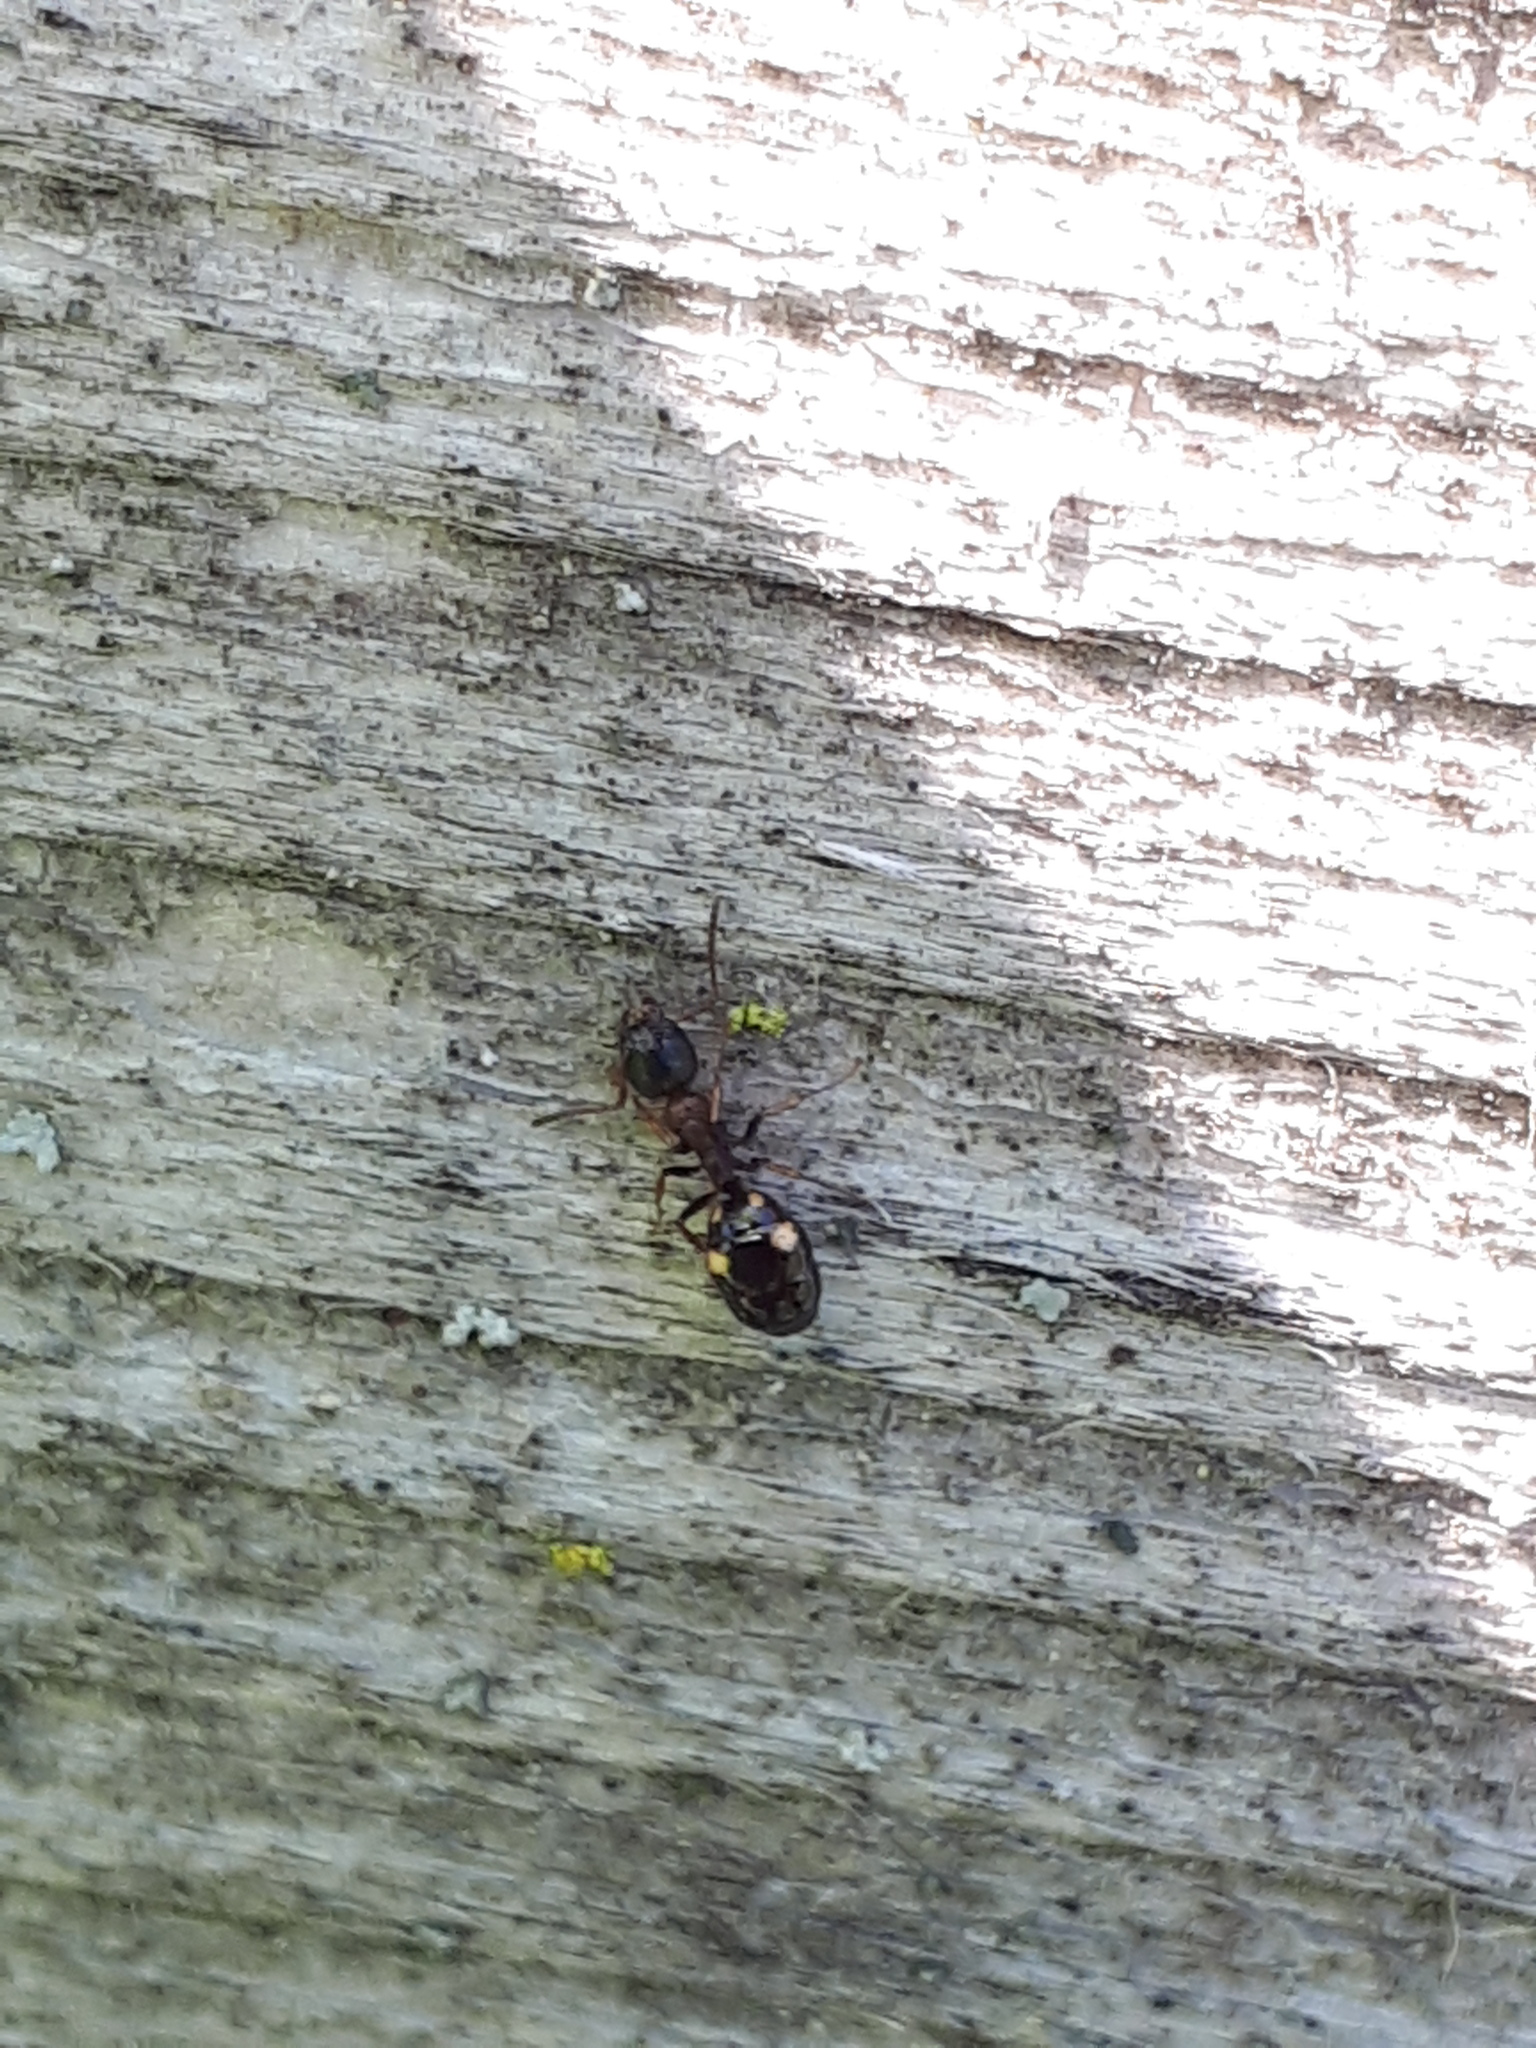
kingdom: Animalia
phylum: Arthropoda
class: Insecta
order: Hymenoptera
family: Formicidae
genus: Dolichoderus
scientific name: Dolichoderus quadripunctatus
